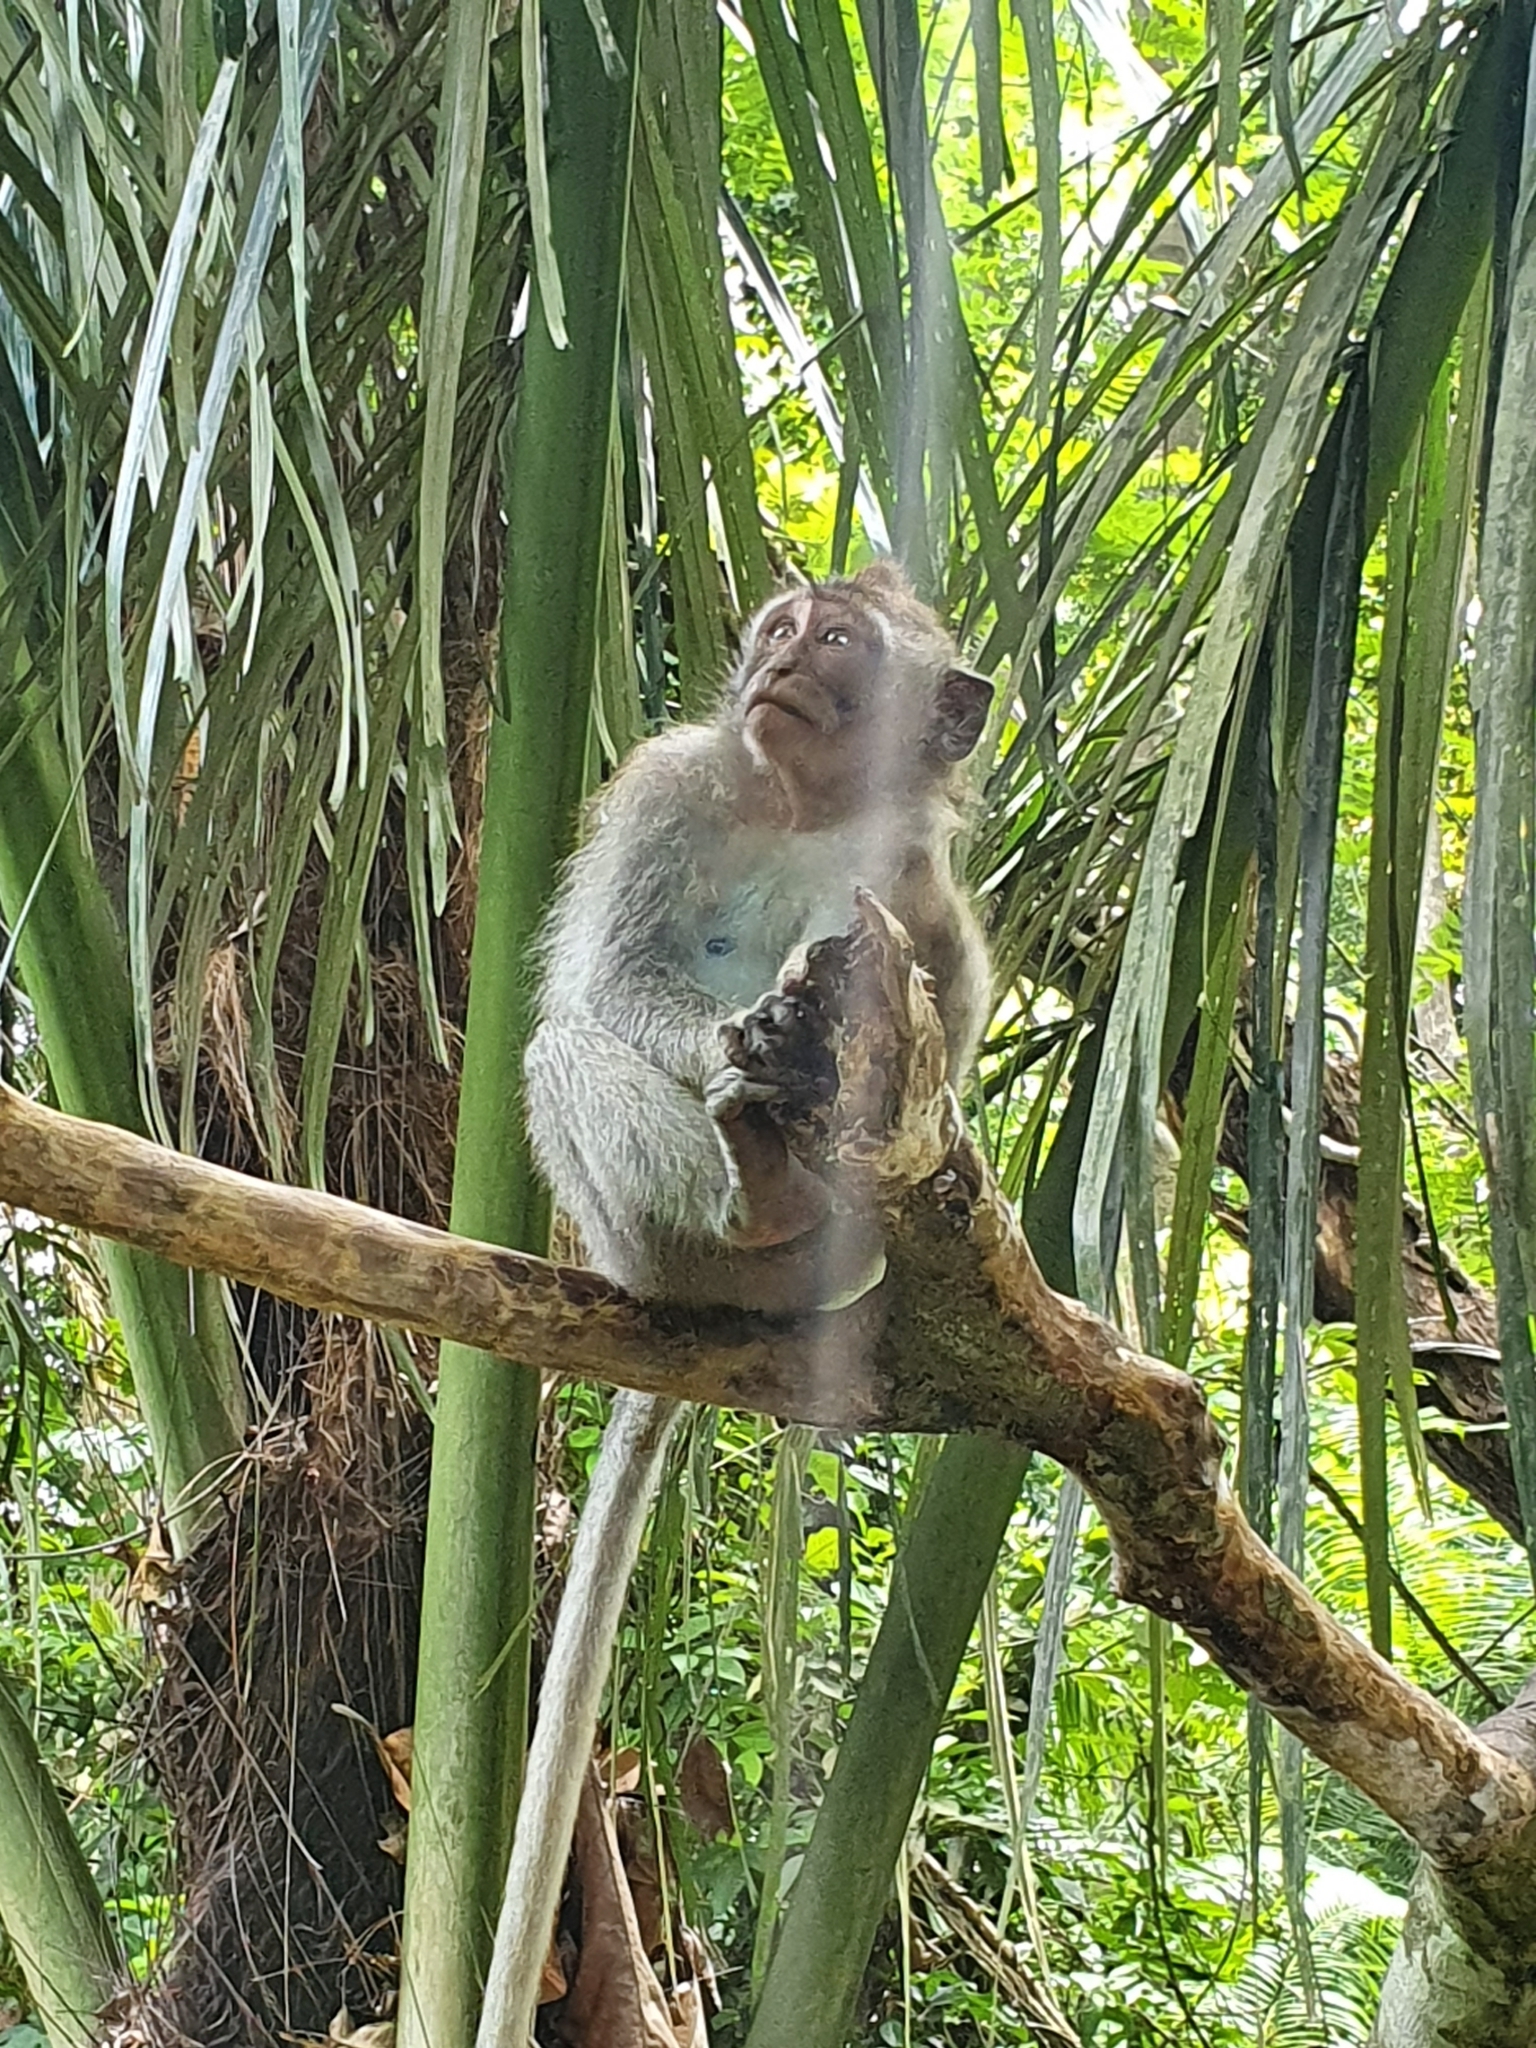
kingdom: Animalia
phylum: Chordata
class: Mammalia
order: Primates
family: Cercopithecidae
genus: Macaca
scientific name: Macaca fascicularis
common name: Crab-eating macaque
